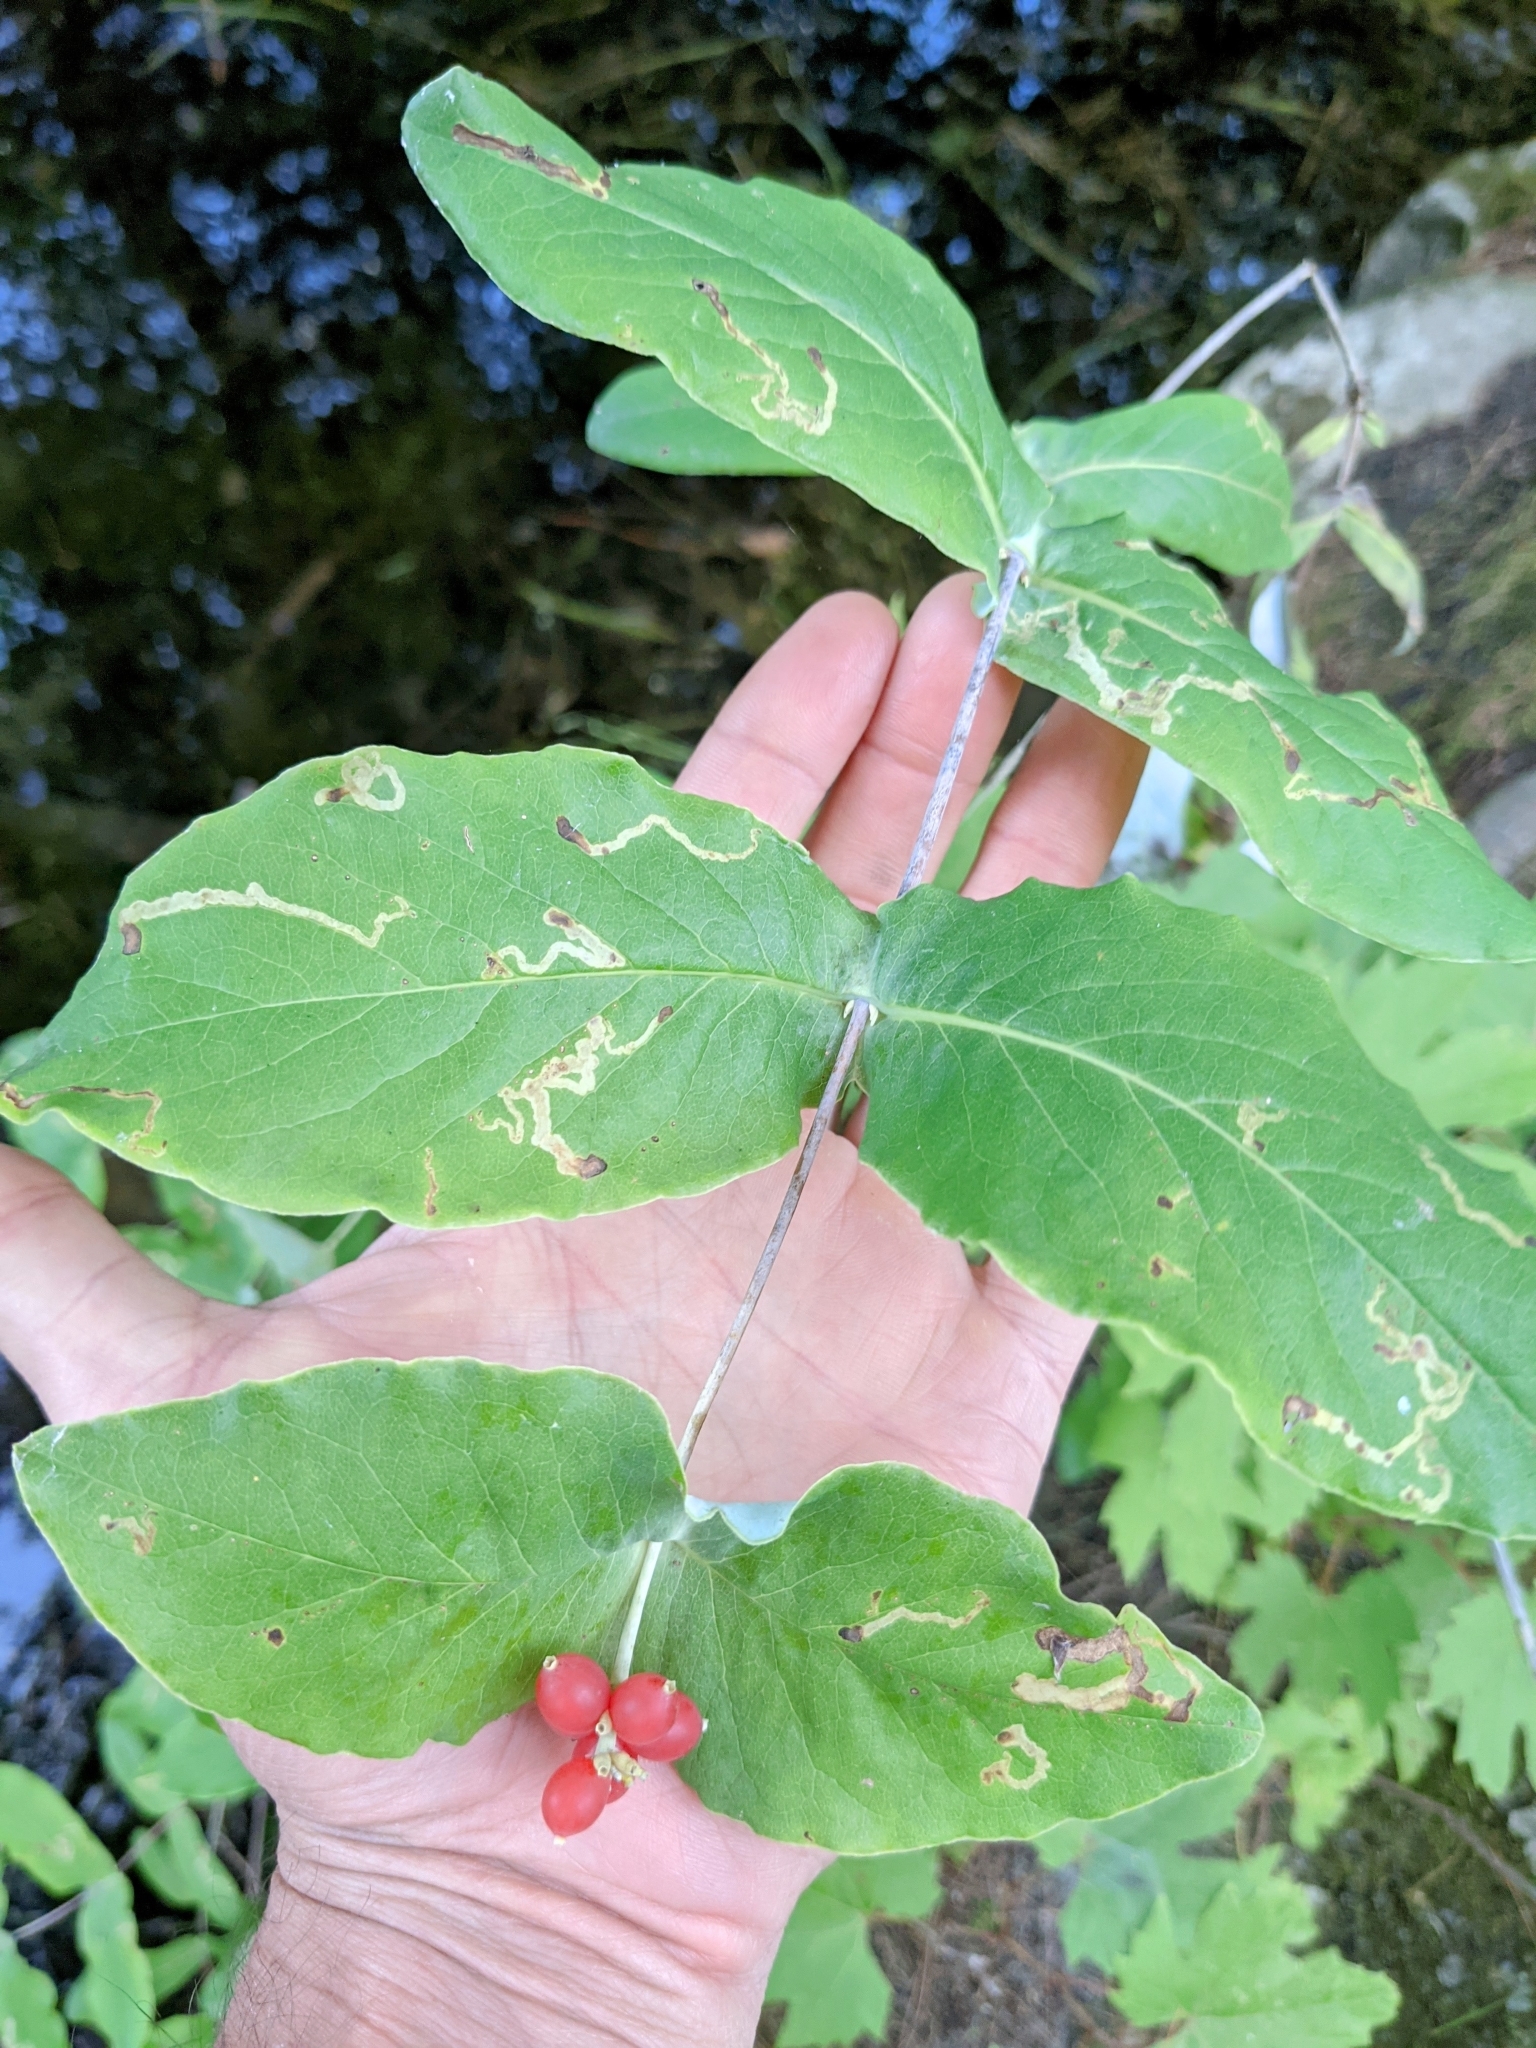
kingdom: Plantae
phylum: Tracheophyta
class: Magnoliopsida
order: Dipsacales
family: Caprifoliaceae
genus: Lonicera
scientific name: Lonicera dioica
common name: Limber honeysuckle
